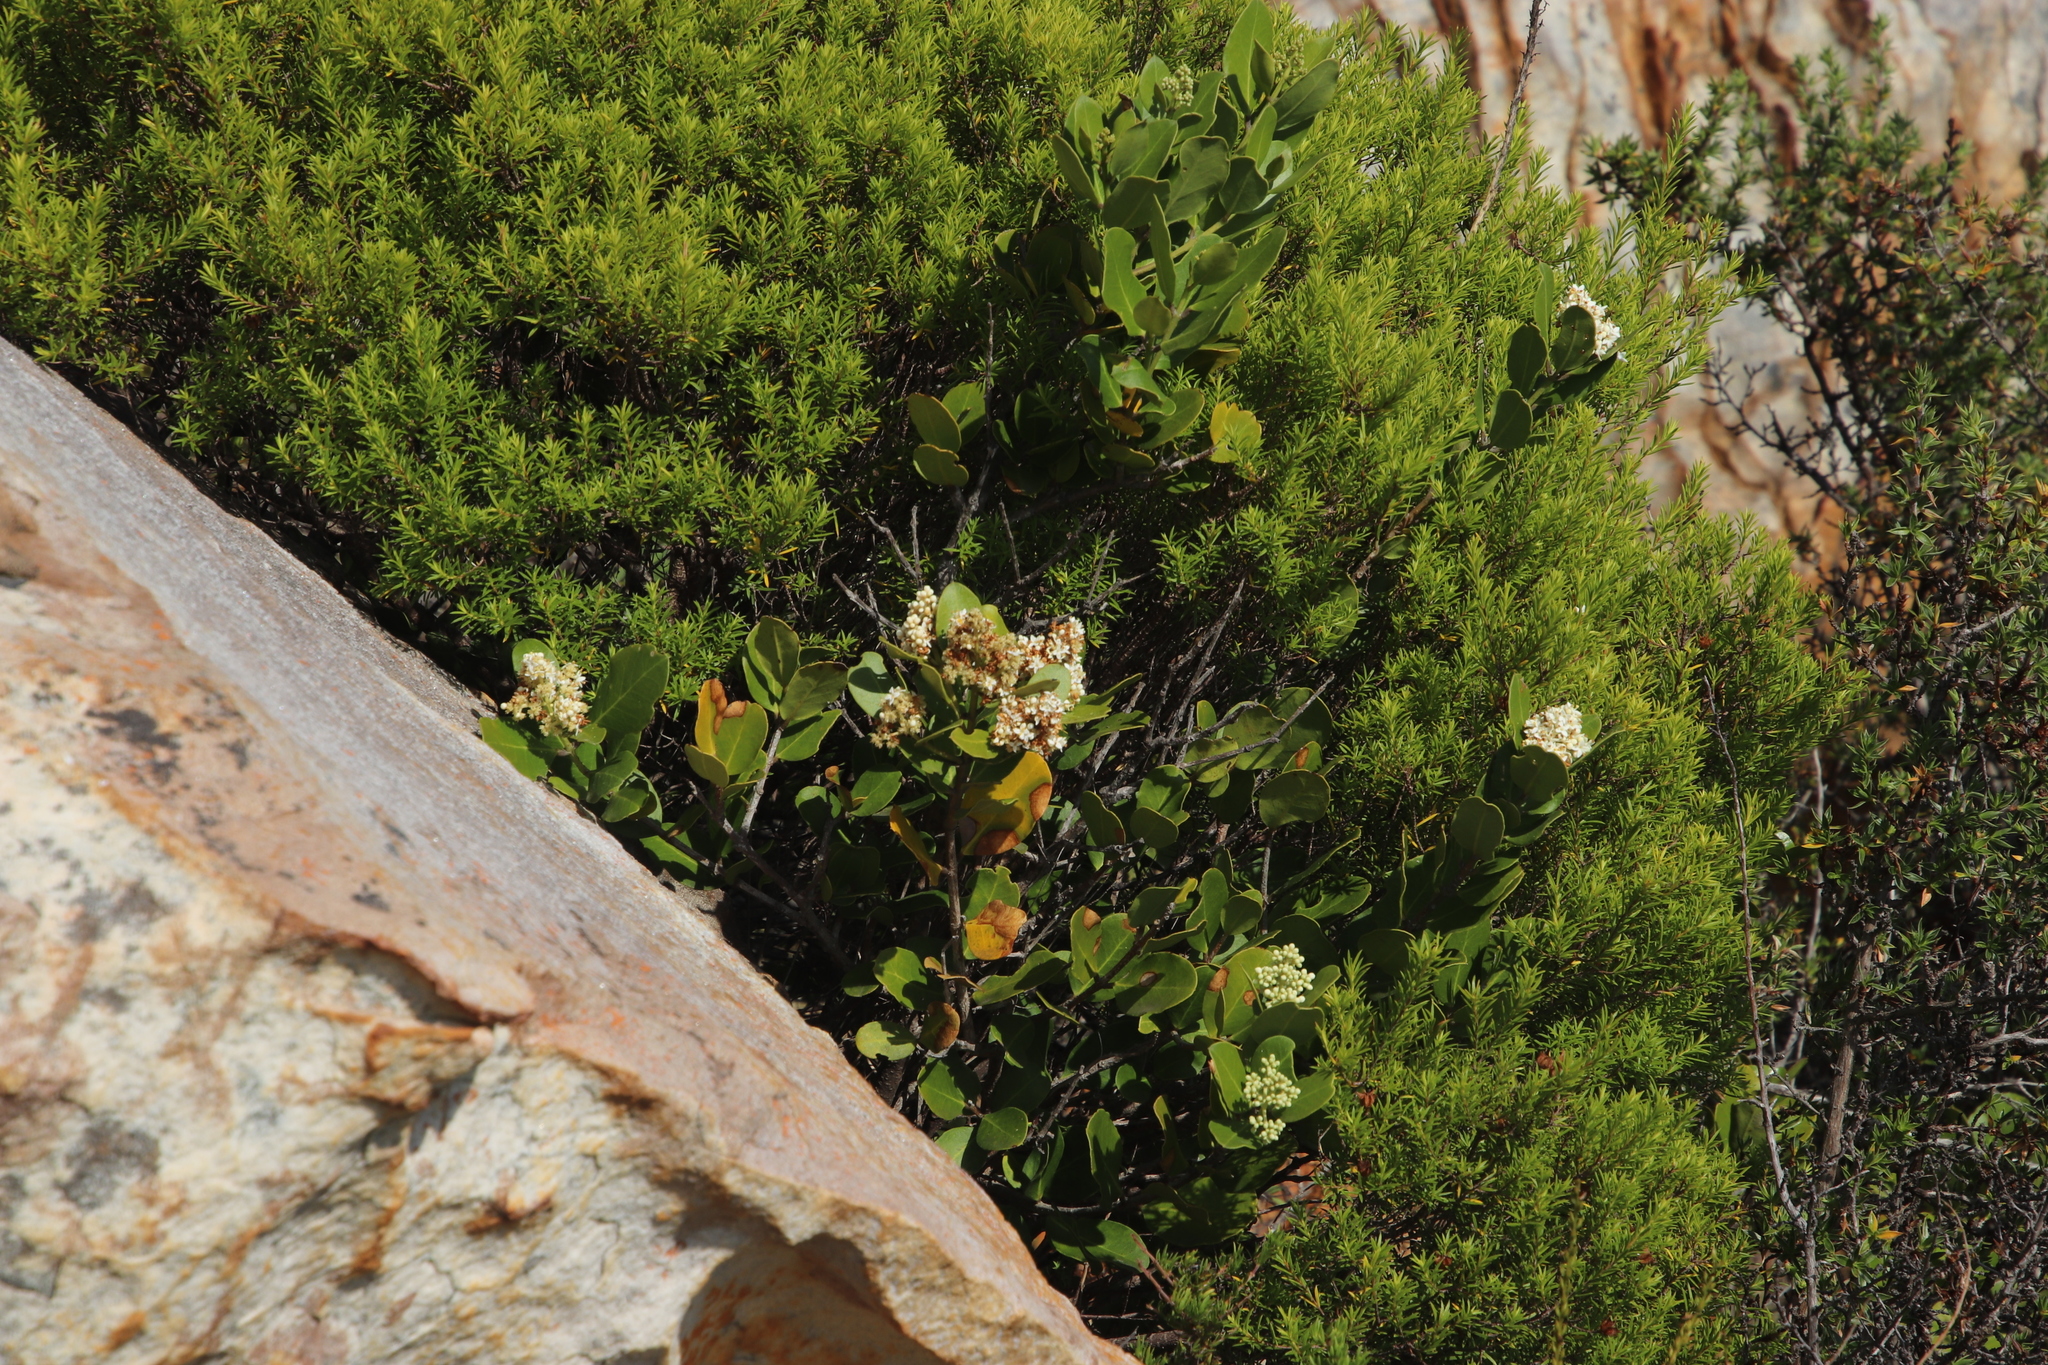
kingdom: Plantae
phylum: Tracheophyta
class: Magnoliopsida
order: Lamiales
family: Oleaceae
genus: Olea
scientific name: Olea capensis
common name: Black ironwood
